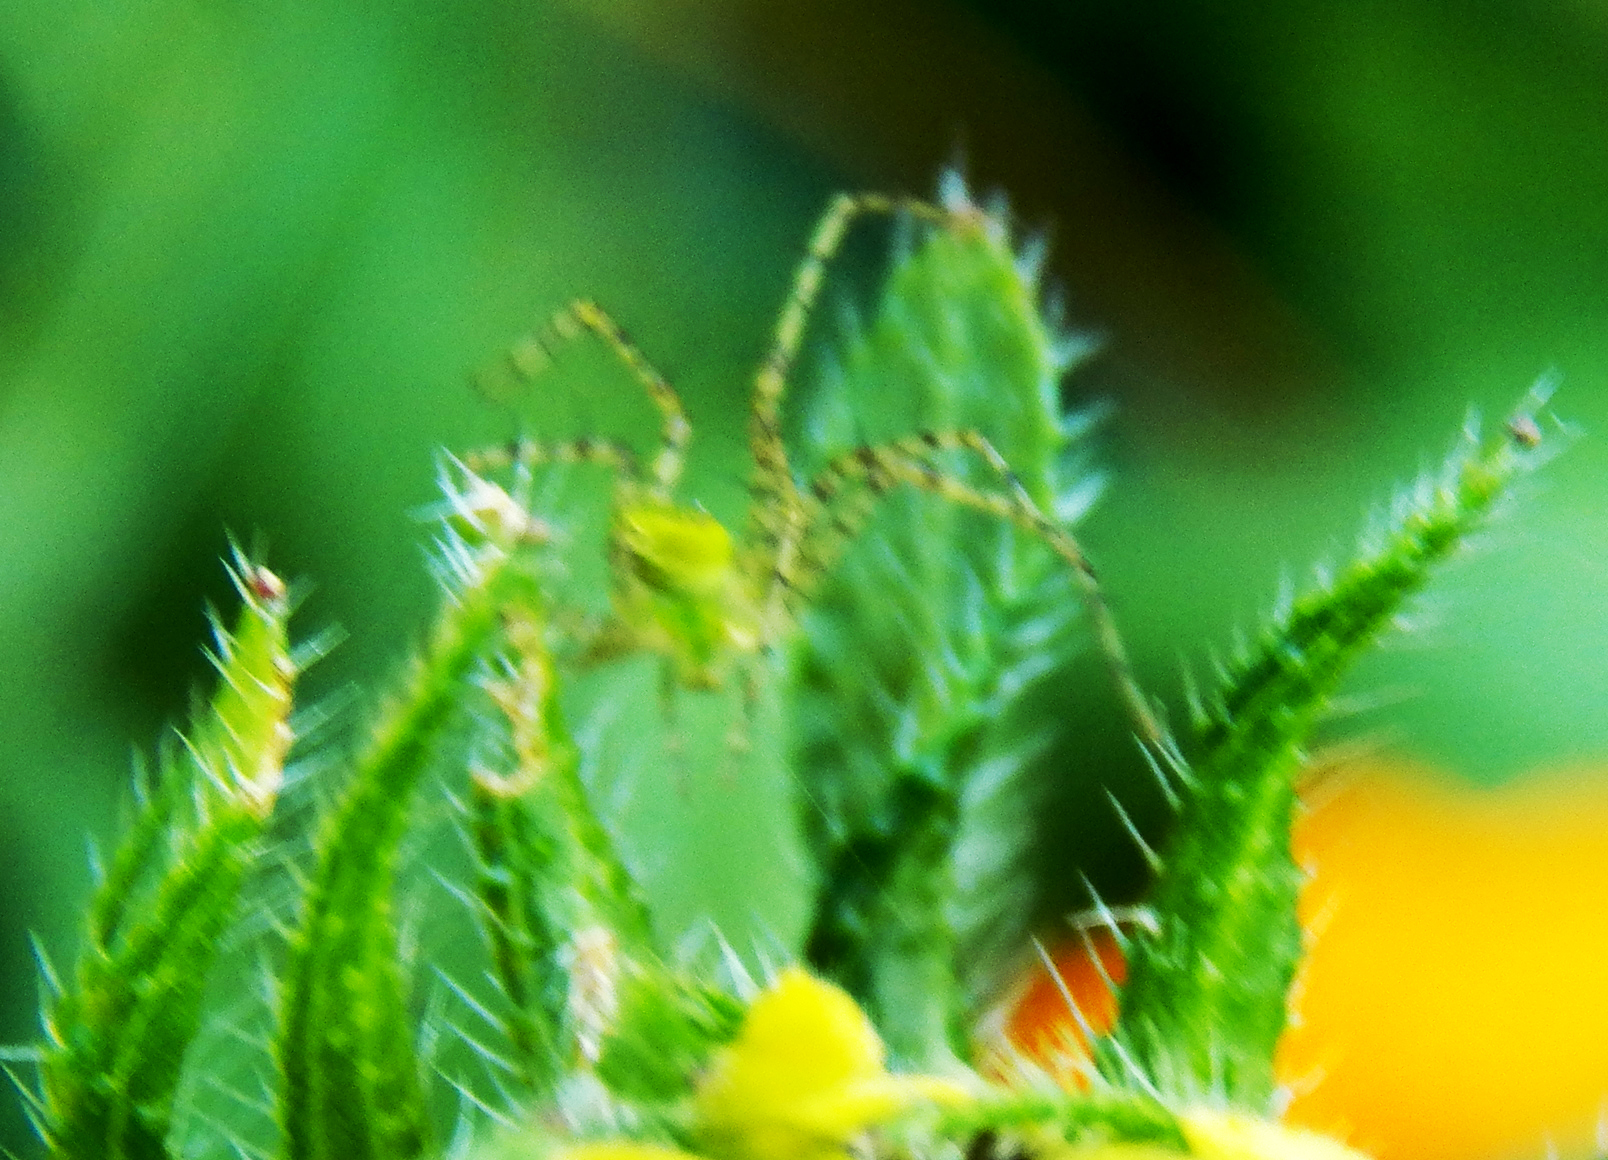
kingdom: Animalia
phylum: Arthropoda
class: Arachnida
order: Araneae
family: Oxyopidae
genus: Peucetia
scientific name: Peucetia viridans
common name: Lynx spiders
